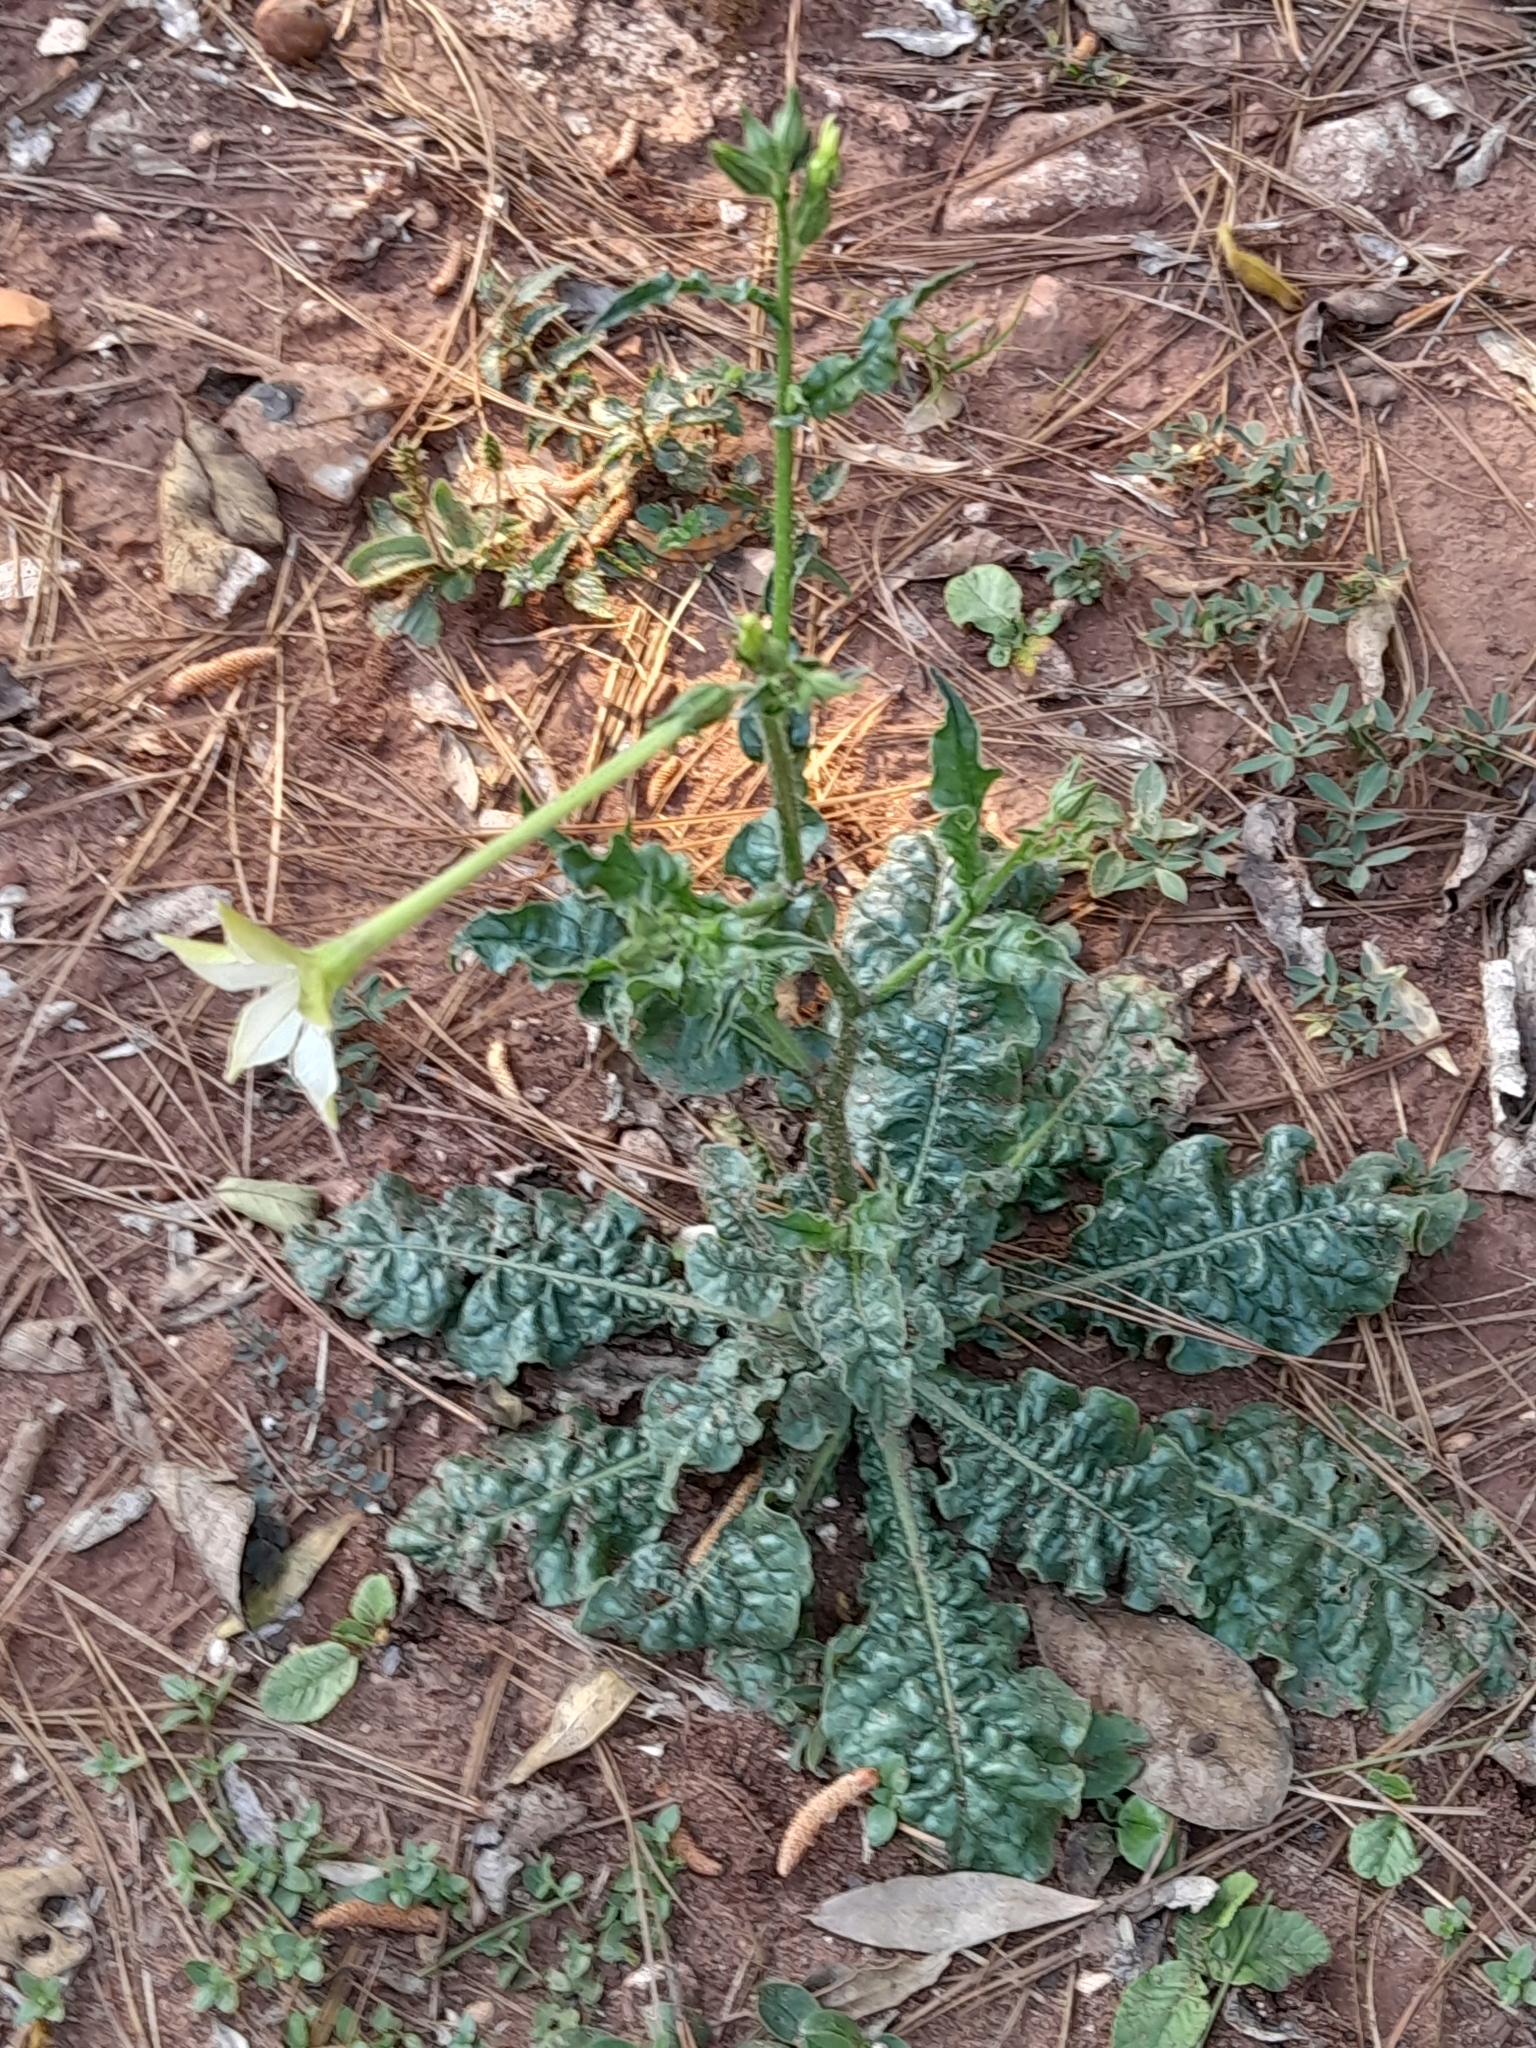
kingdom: Plantae
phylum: Tracheophyta
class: Magnoliopsida
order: Solanales
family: Solanaceae
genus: Nicotiana
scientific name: Nicotiana longiflora
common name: Long-flowered tobacco
